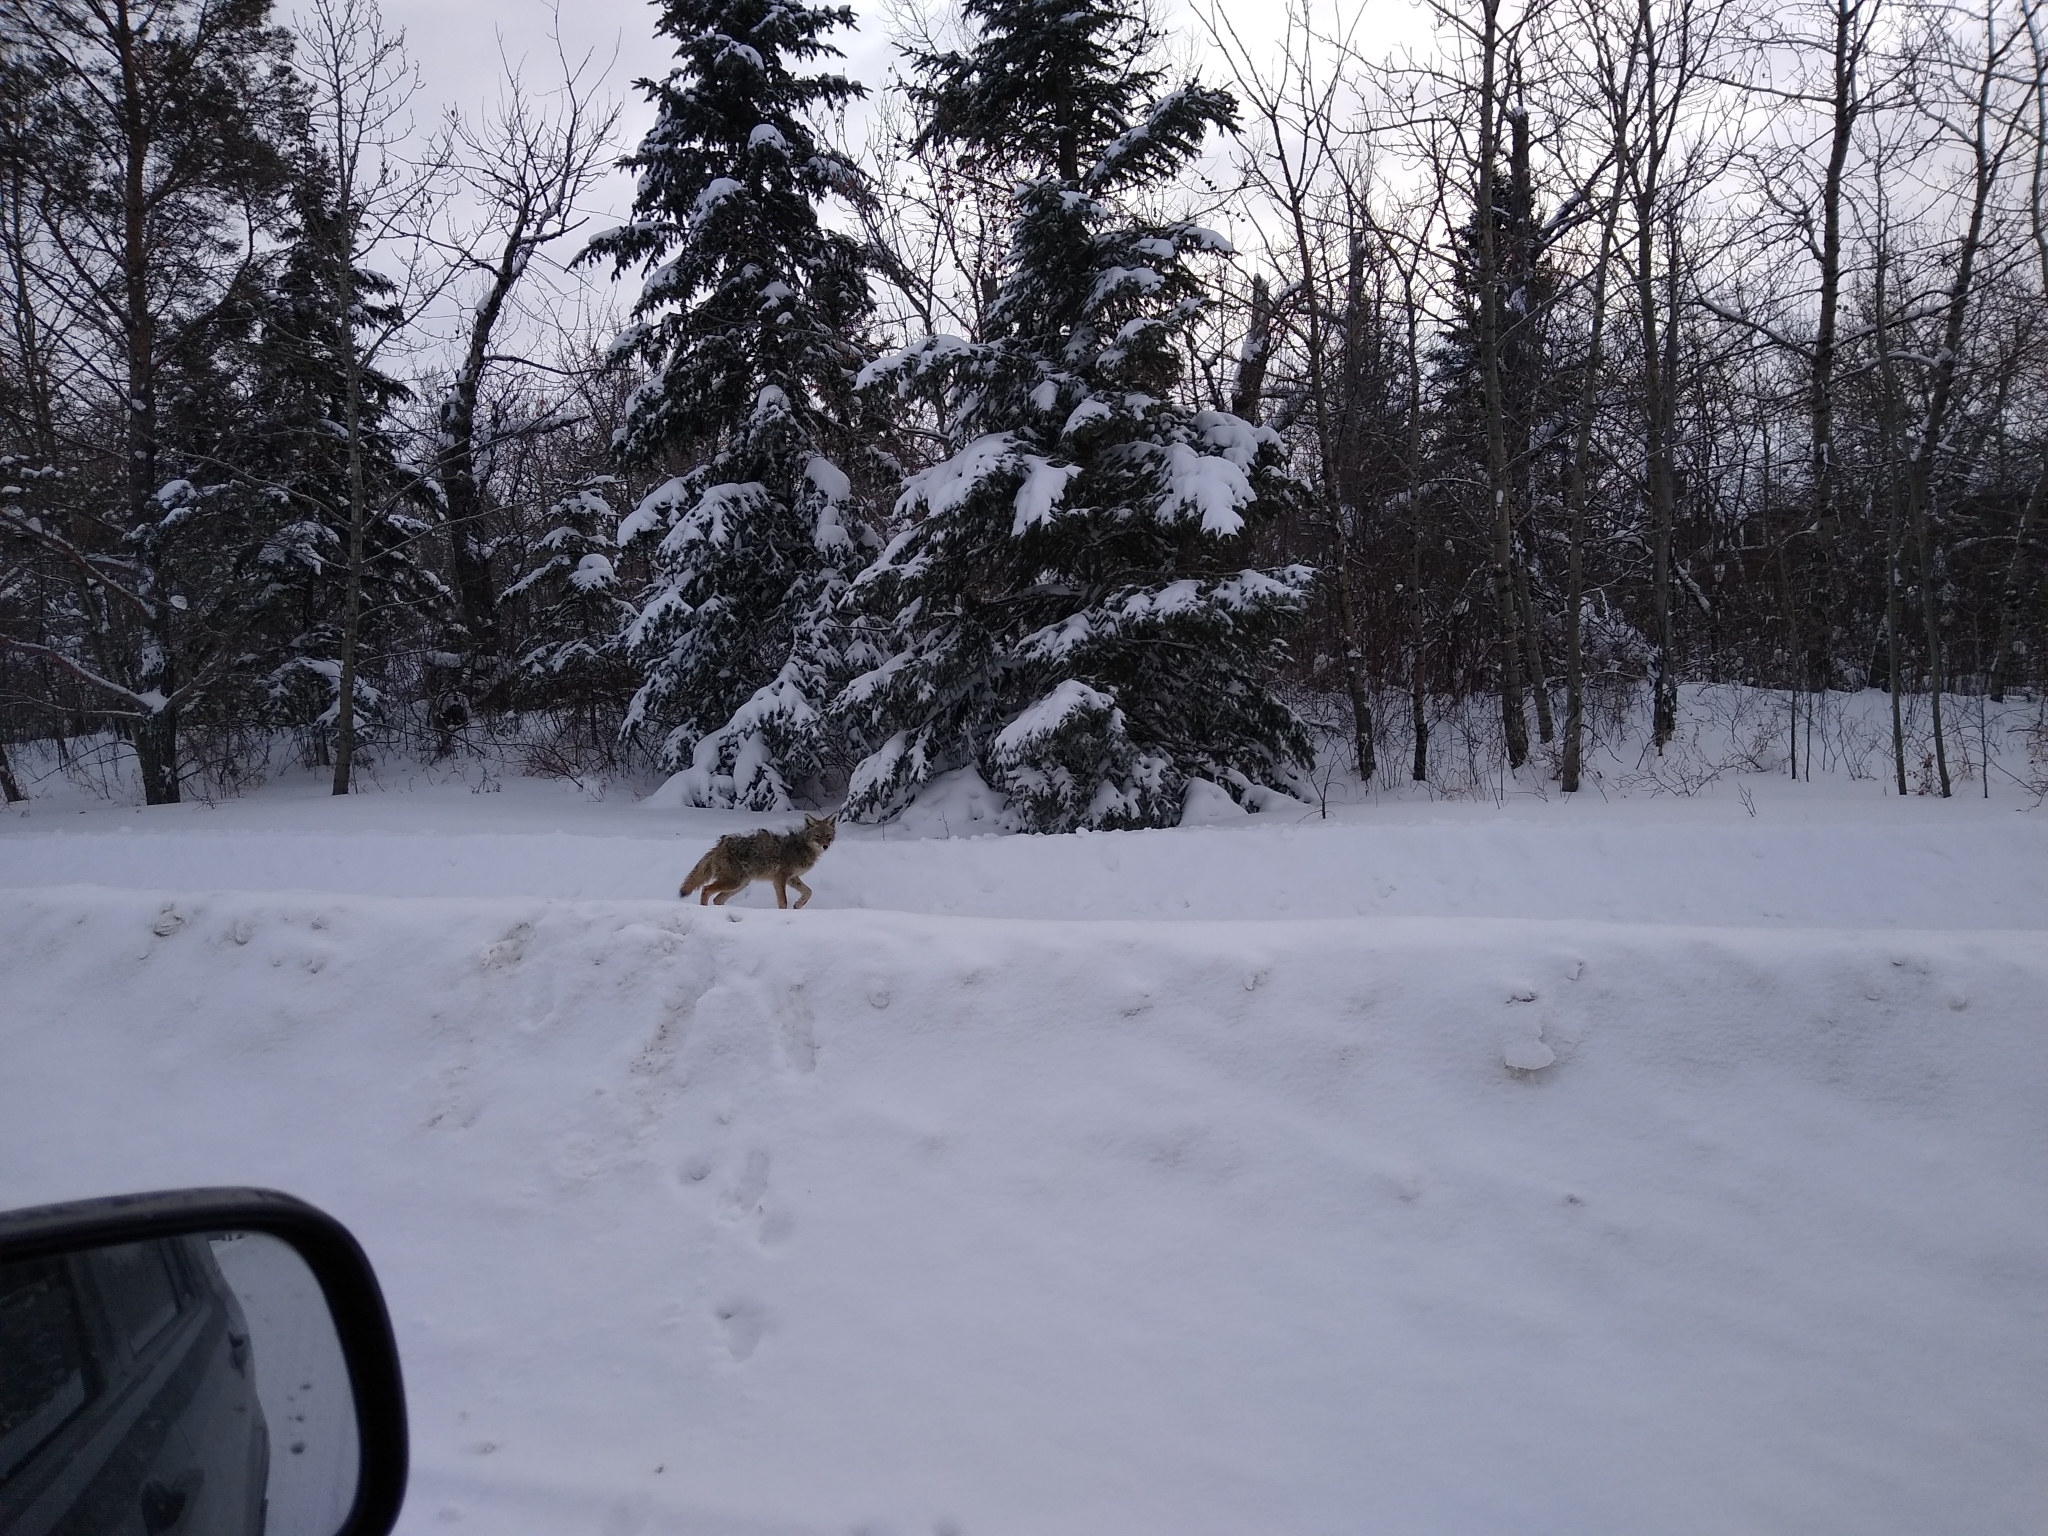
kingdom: Animalia
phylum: Chordata
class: Mammalia
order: Carnivora
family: Canidae
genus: Canis
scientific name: Canis latrans
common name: Coyote
